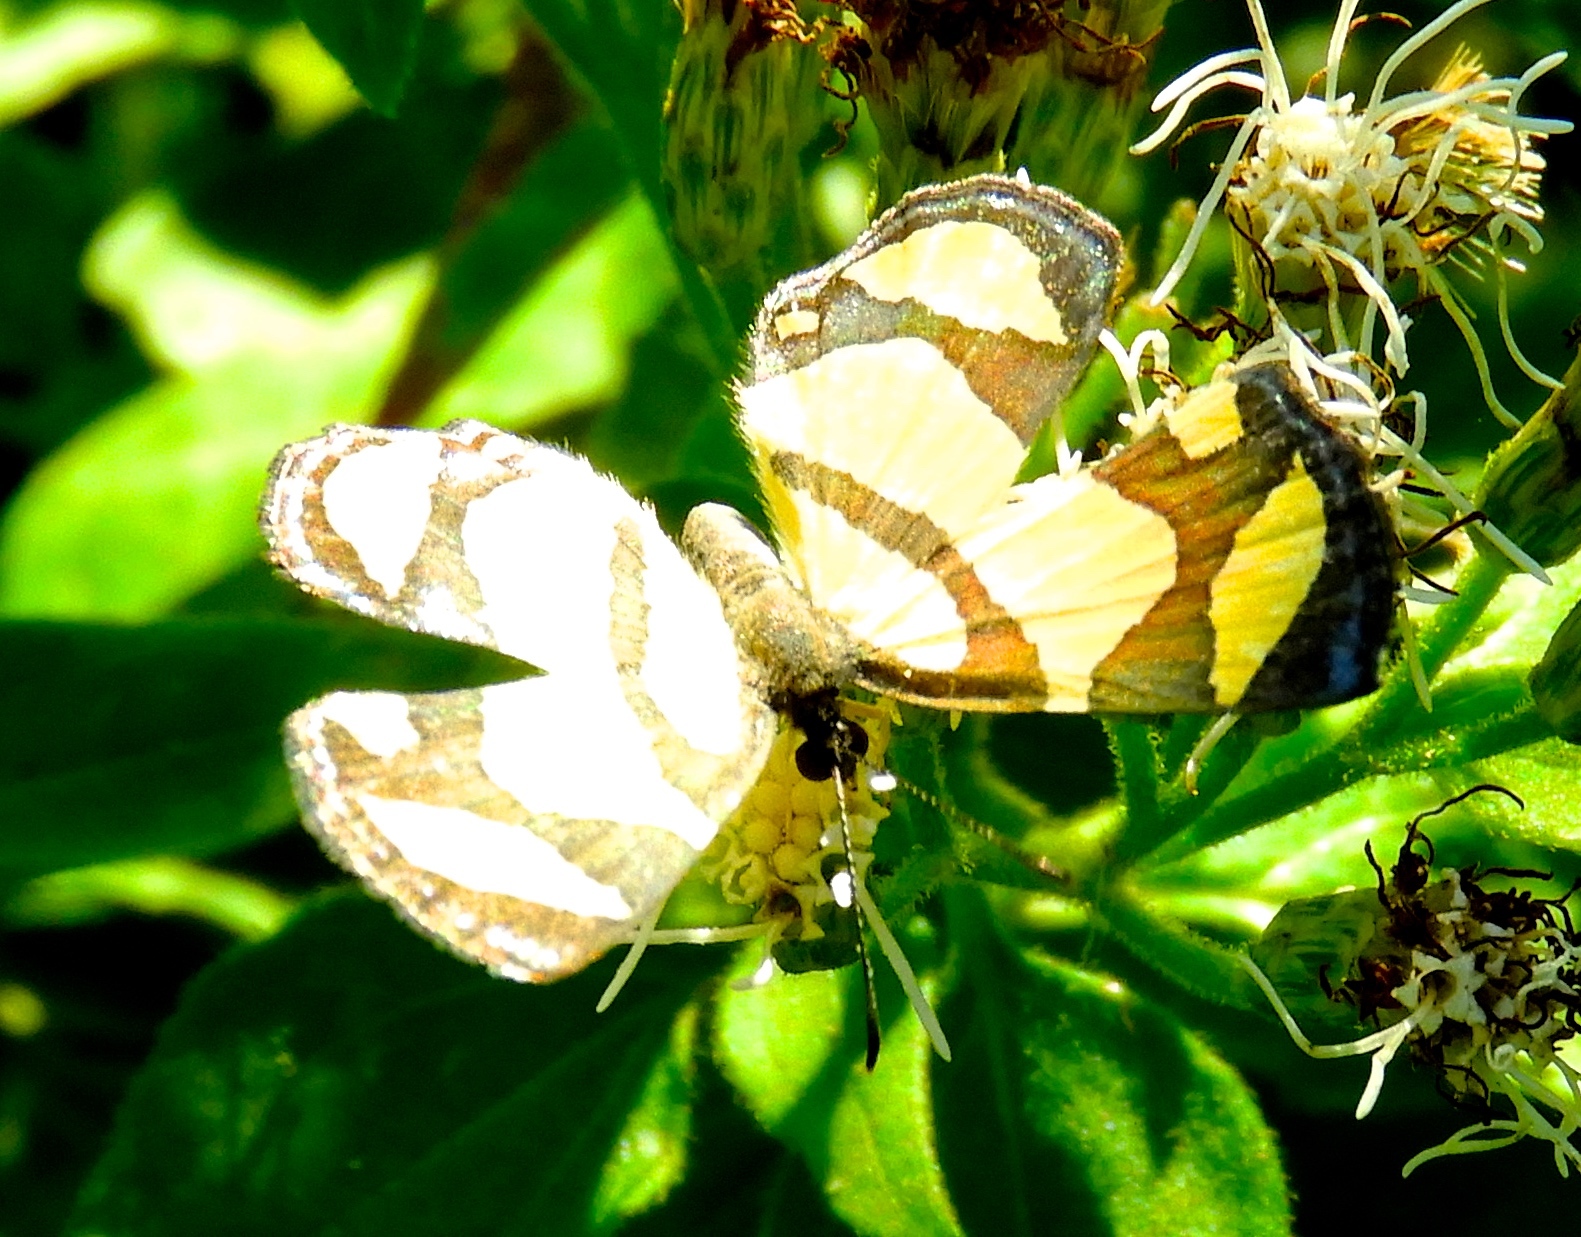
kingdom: Animalia
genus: Baeotis
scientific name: Baeotis zonata
